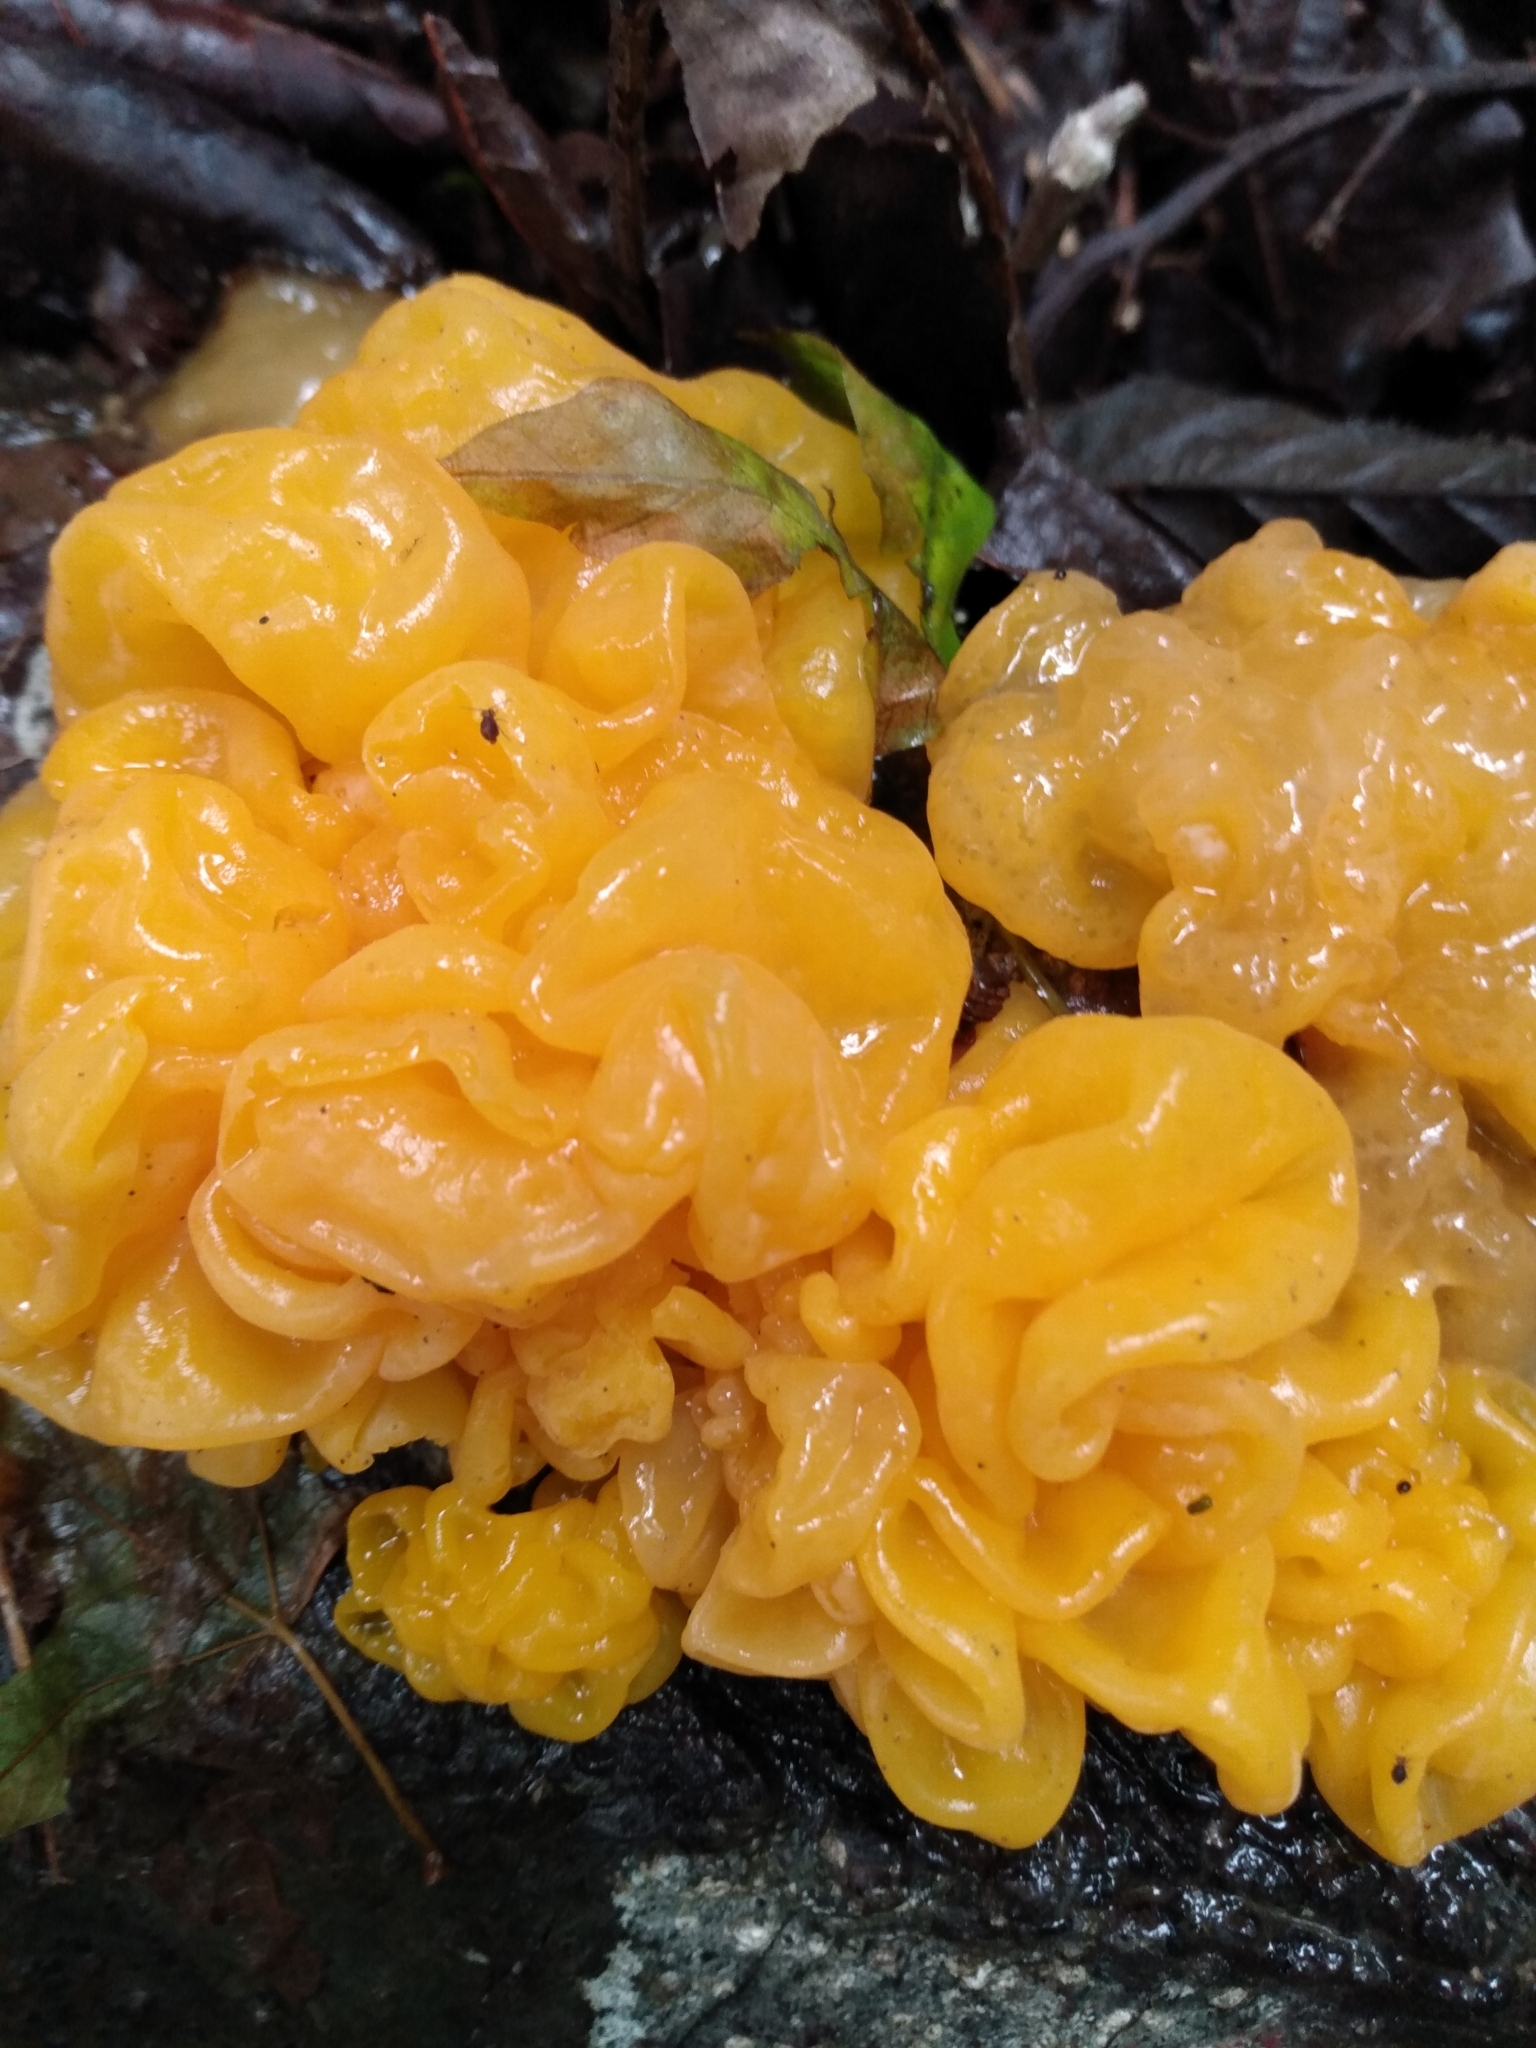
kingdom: Fungi
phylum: Basidiomycota
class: Tremellomycetes
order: Tremellales
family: Tremellaceae
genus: Tremella
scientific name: Tremella mesenterica
